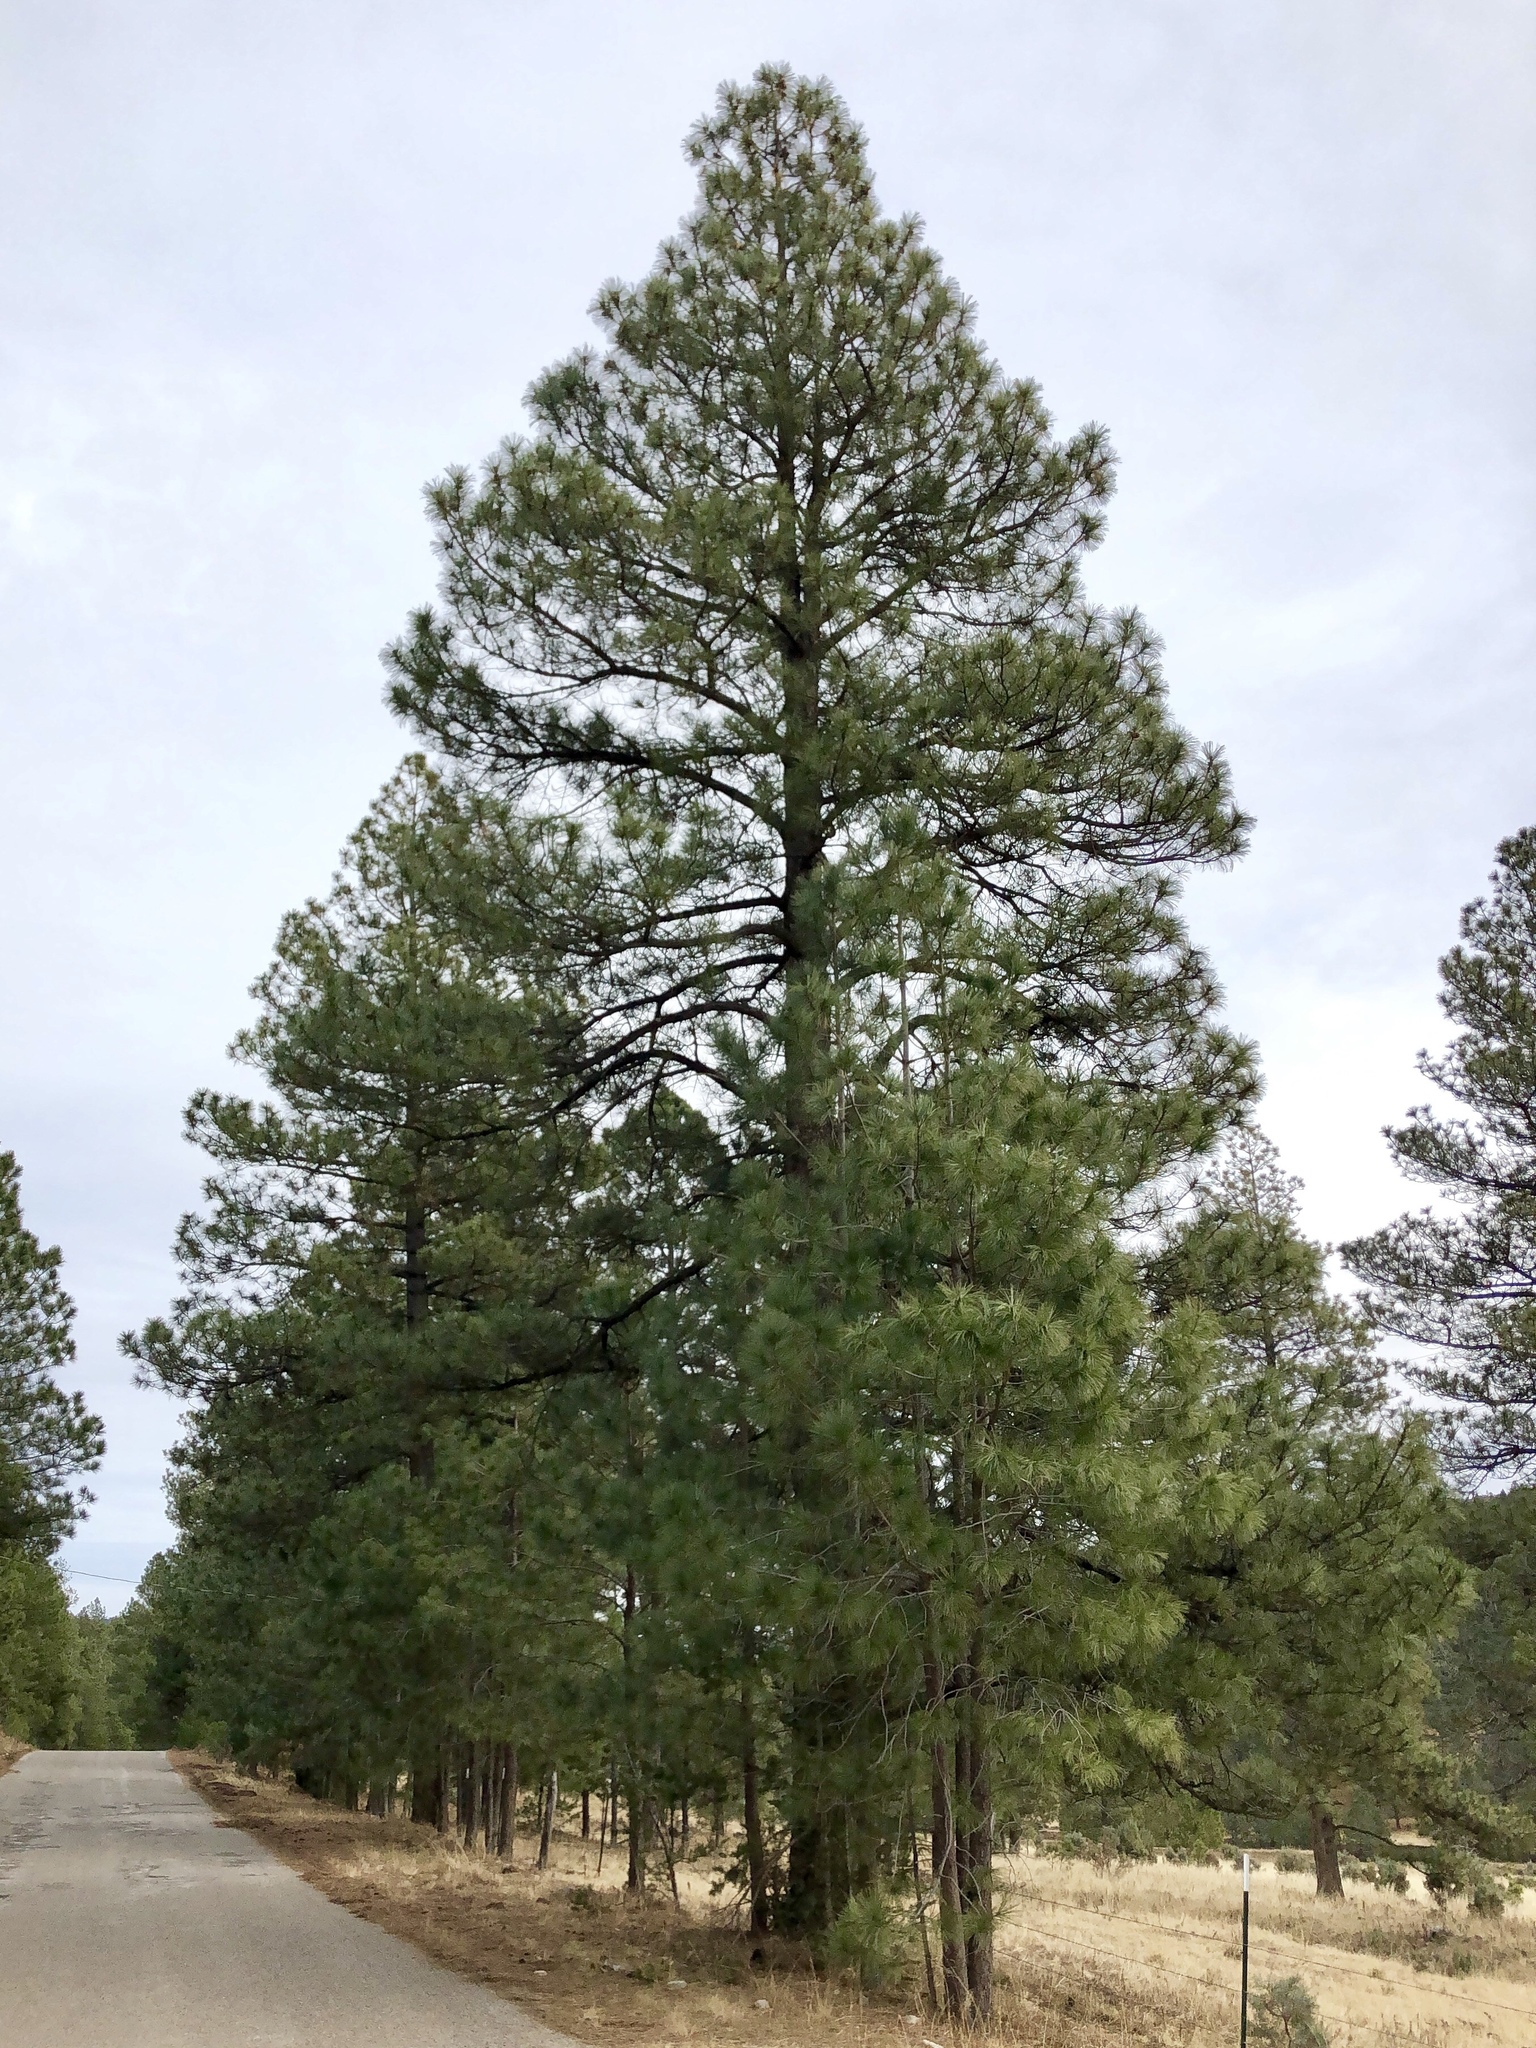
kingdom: Plantae
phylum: Tracheophyta
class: Pinopsida
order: Pinales
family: Pinaceae
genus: Pinus
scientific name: Pinus ponderosa
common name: Western yellow-pine
